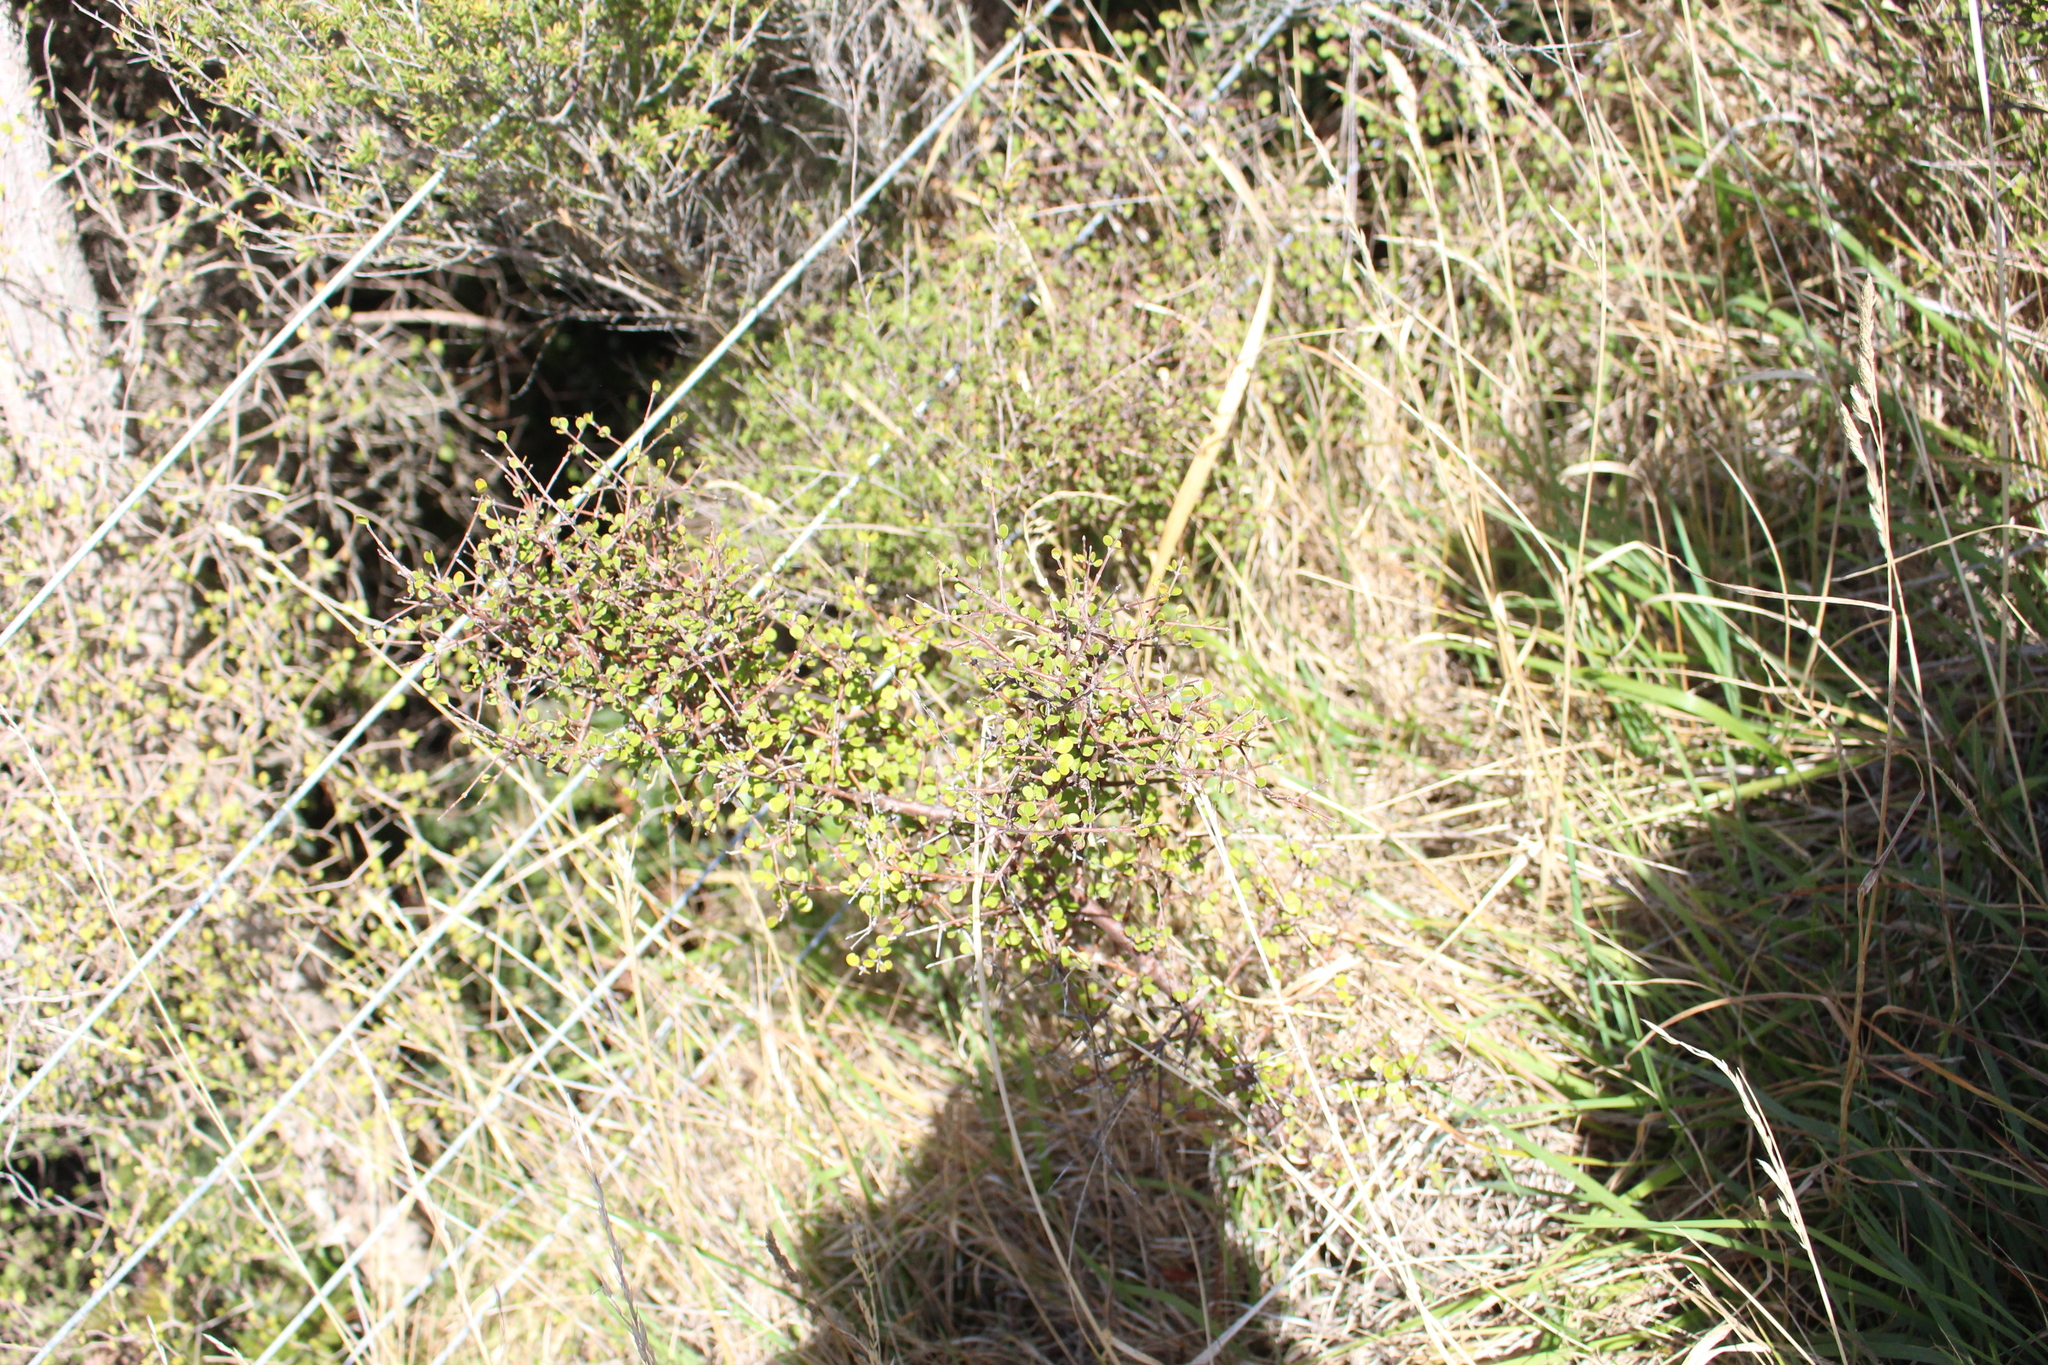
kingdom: Plantae
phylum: Tracheophyta
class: Magnoliopsida
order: Gentianales
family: Rubiaceae
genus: Coprosma
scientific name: Coprosma crassifolia
